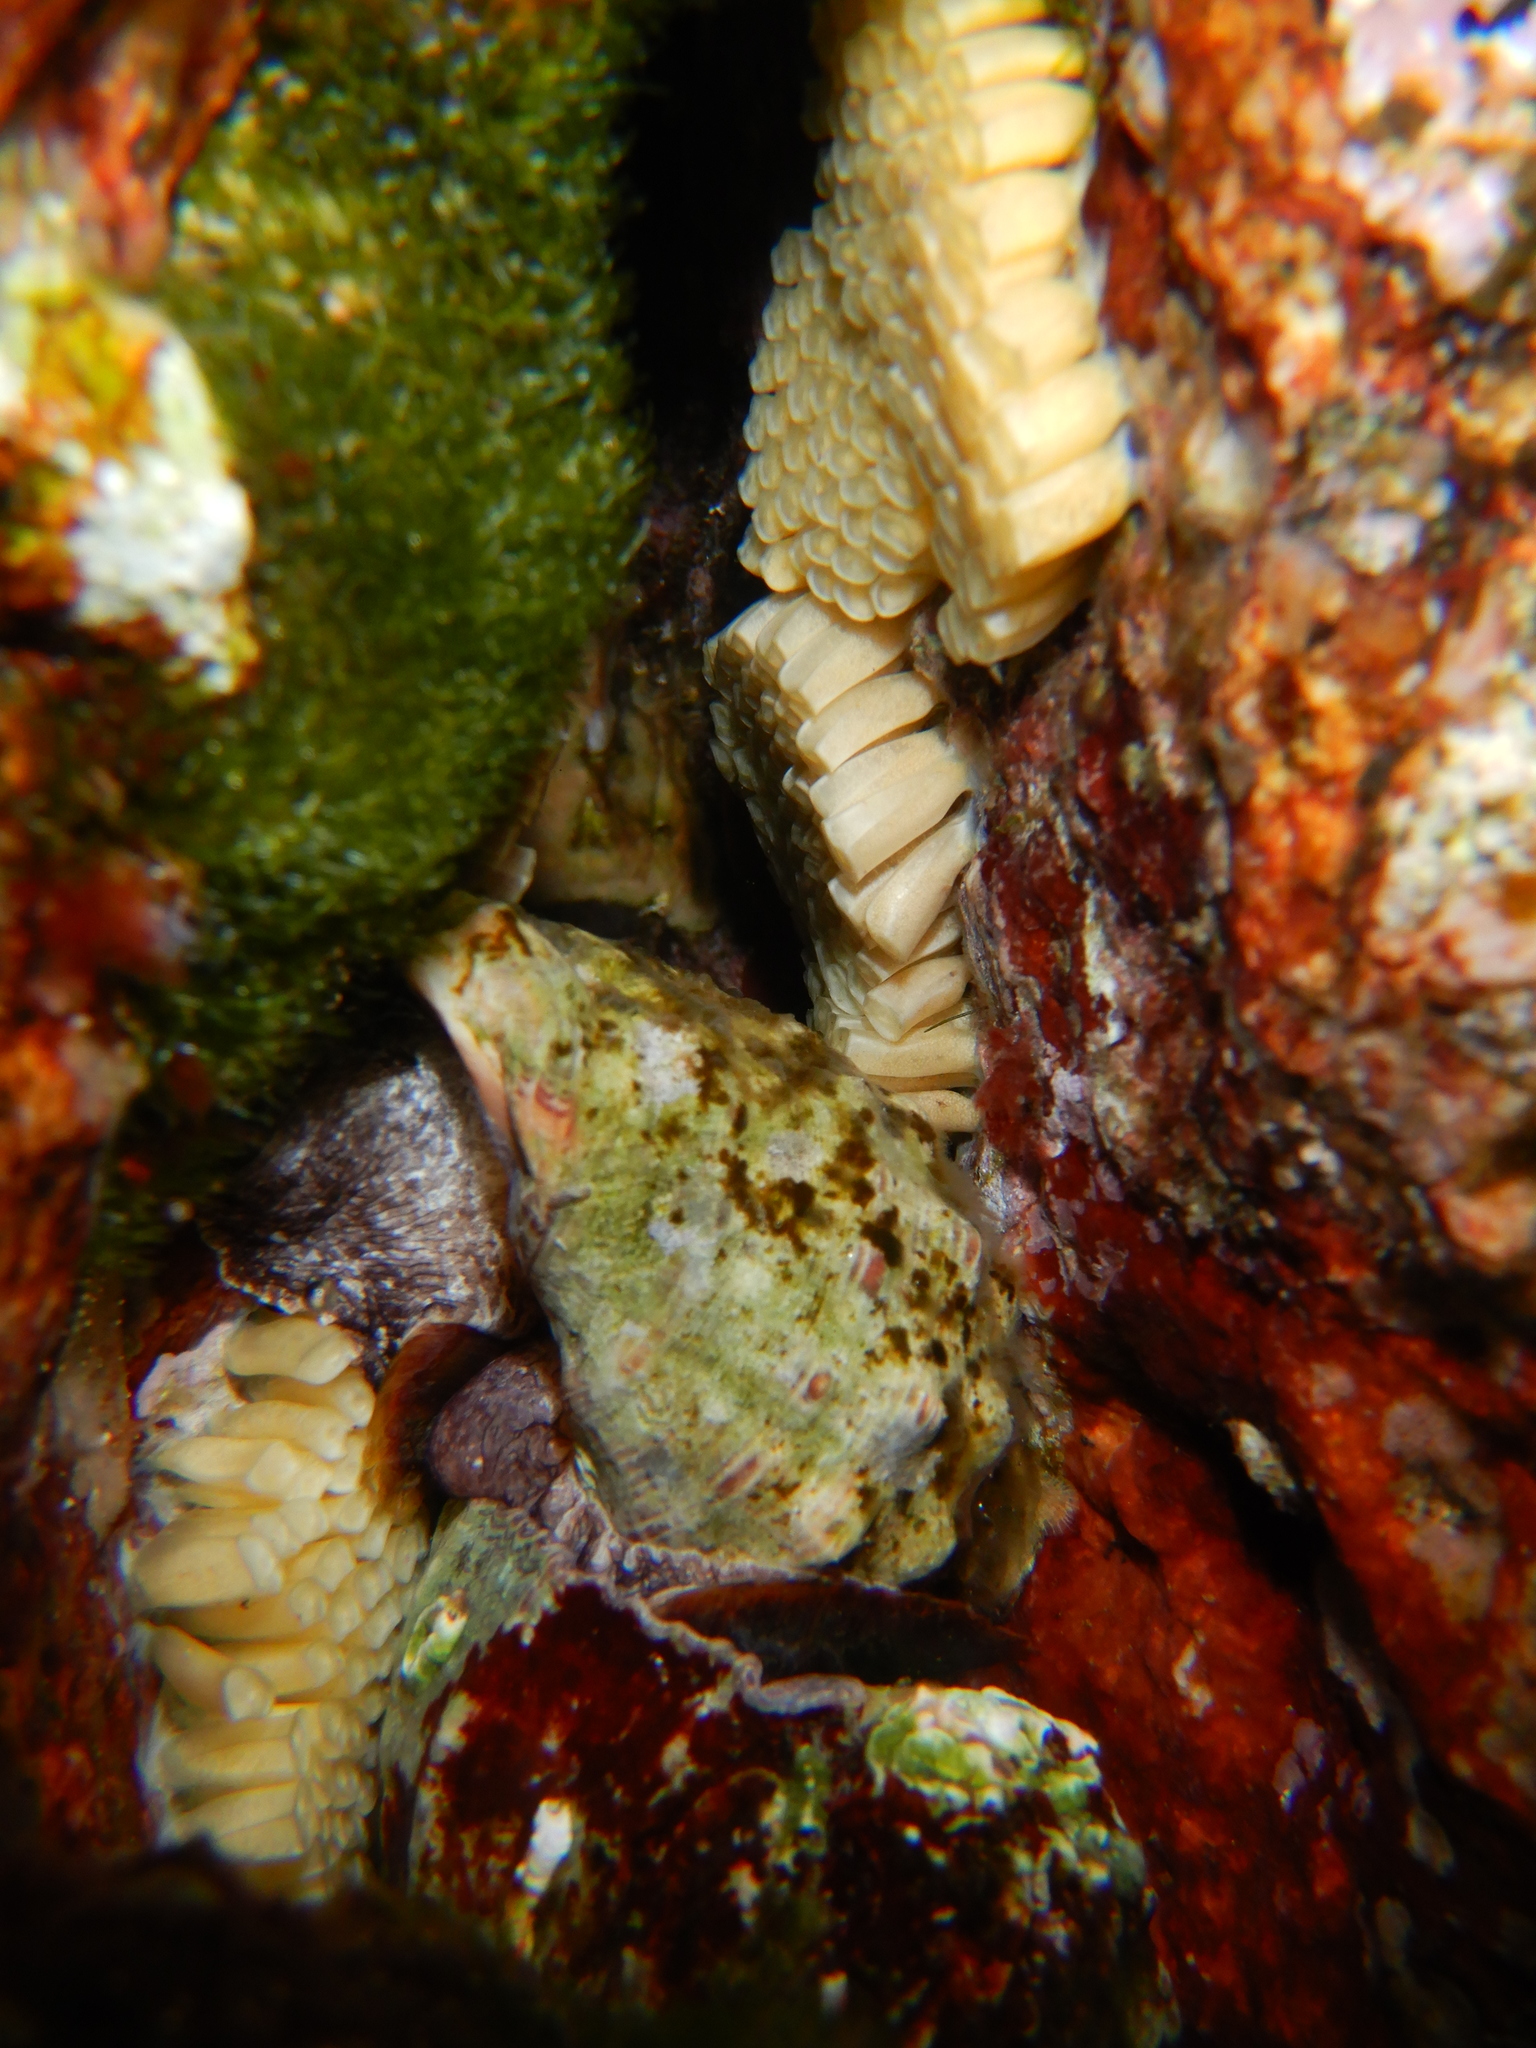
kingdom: Animalia
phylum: Mollusca
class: Gastropoda
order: Neogastropoda
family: Muricidae
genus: Stramonita
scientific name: Stramonita haemastoma
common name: Florida dog winkle
